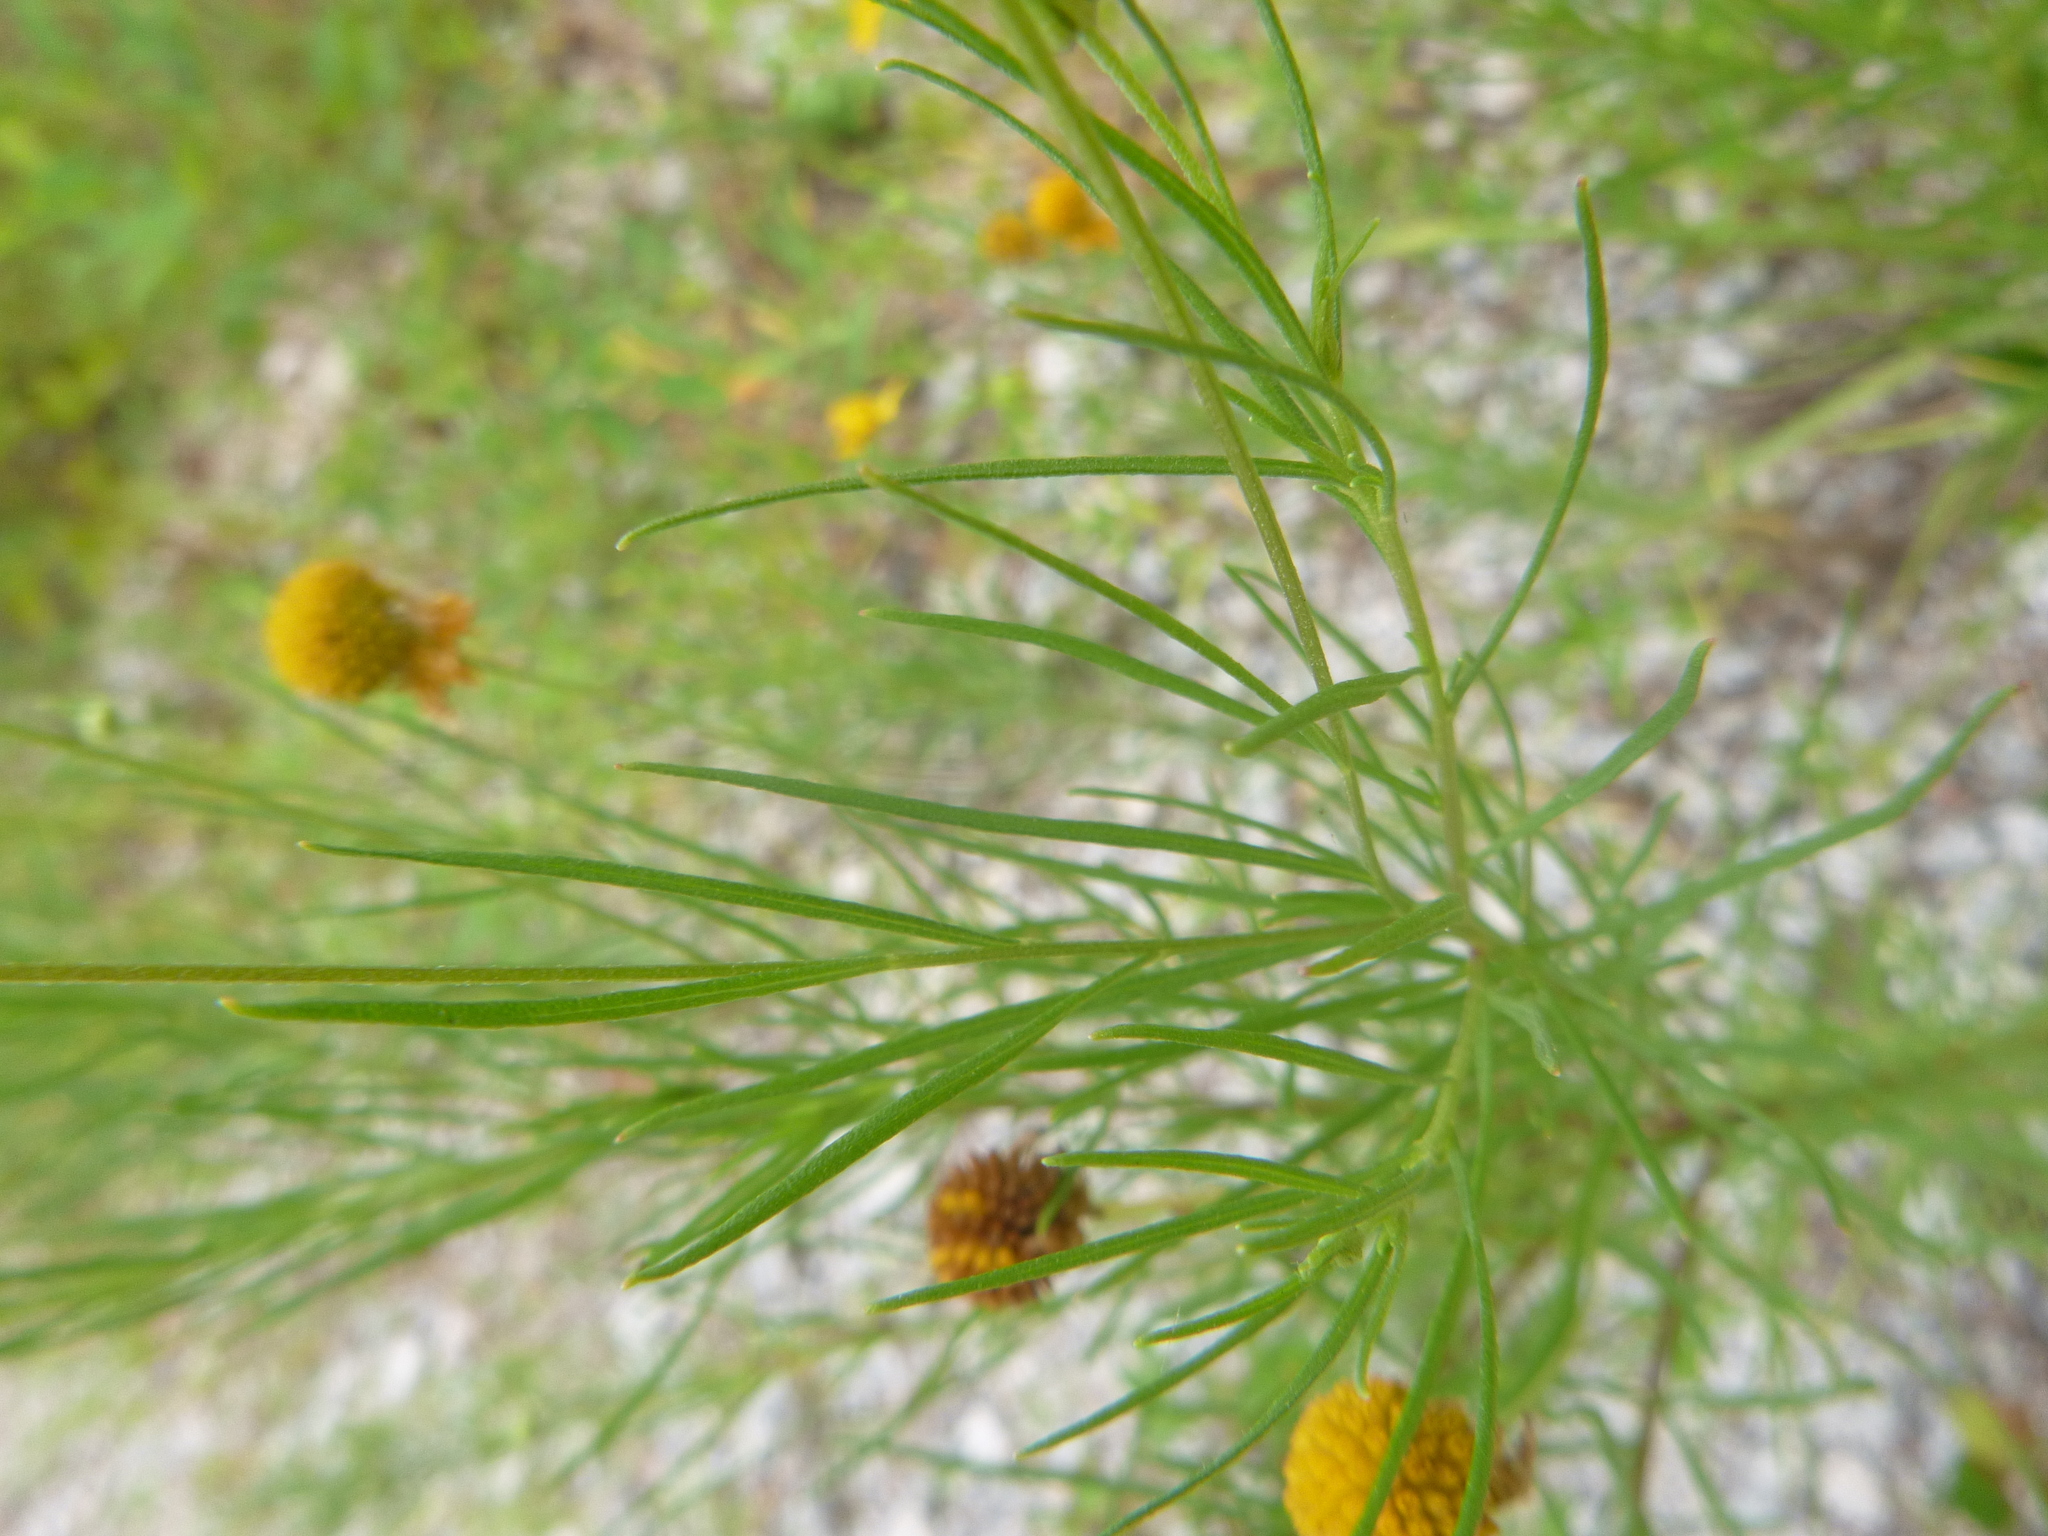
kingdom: Plantae
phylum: Tracheophyta
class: Magnoliopsida
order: Asterales
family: Asteraceae
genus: Helenium
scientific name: Helenium amarum
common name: Bitter sneezeweed
